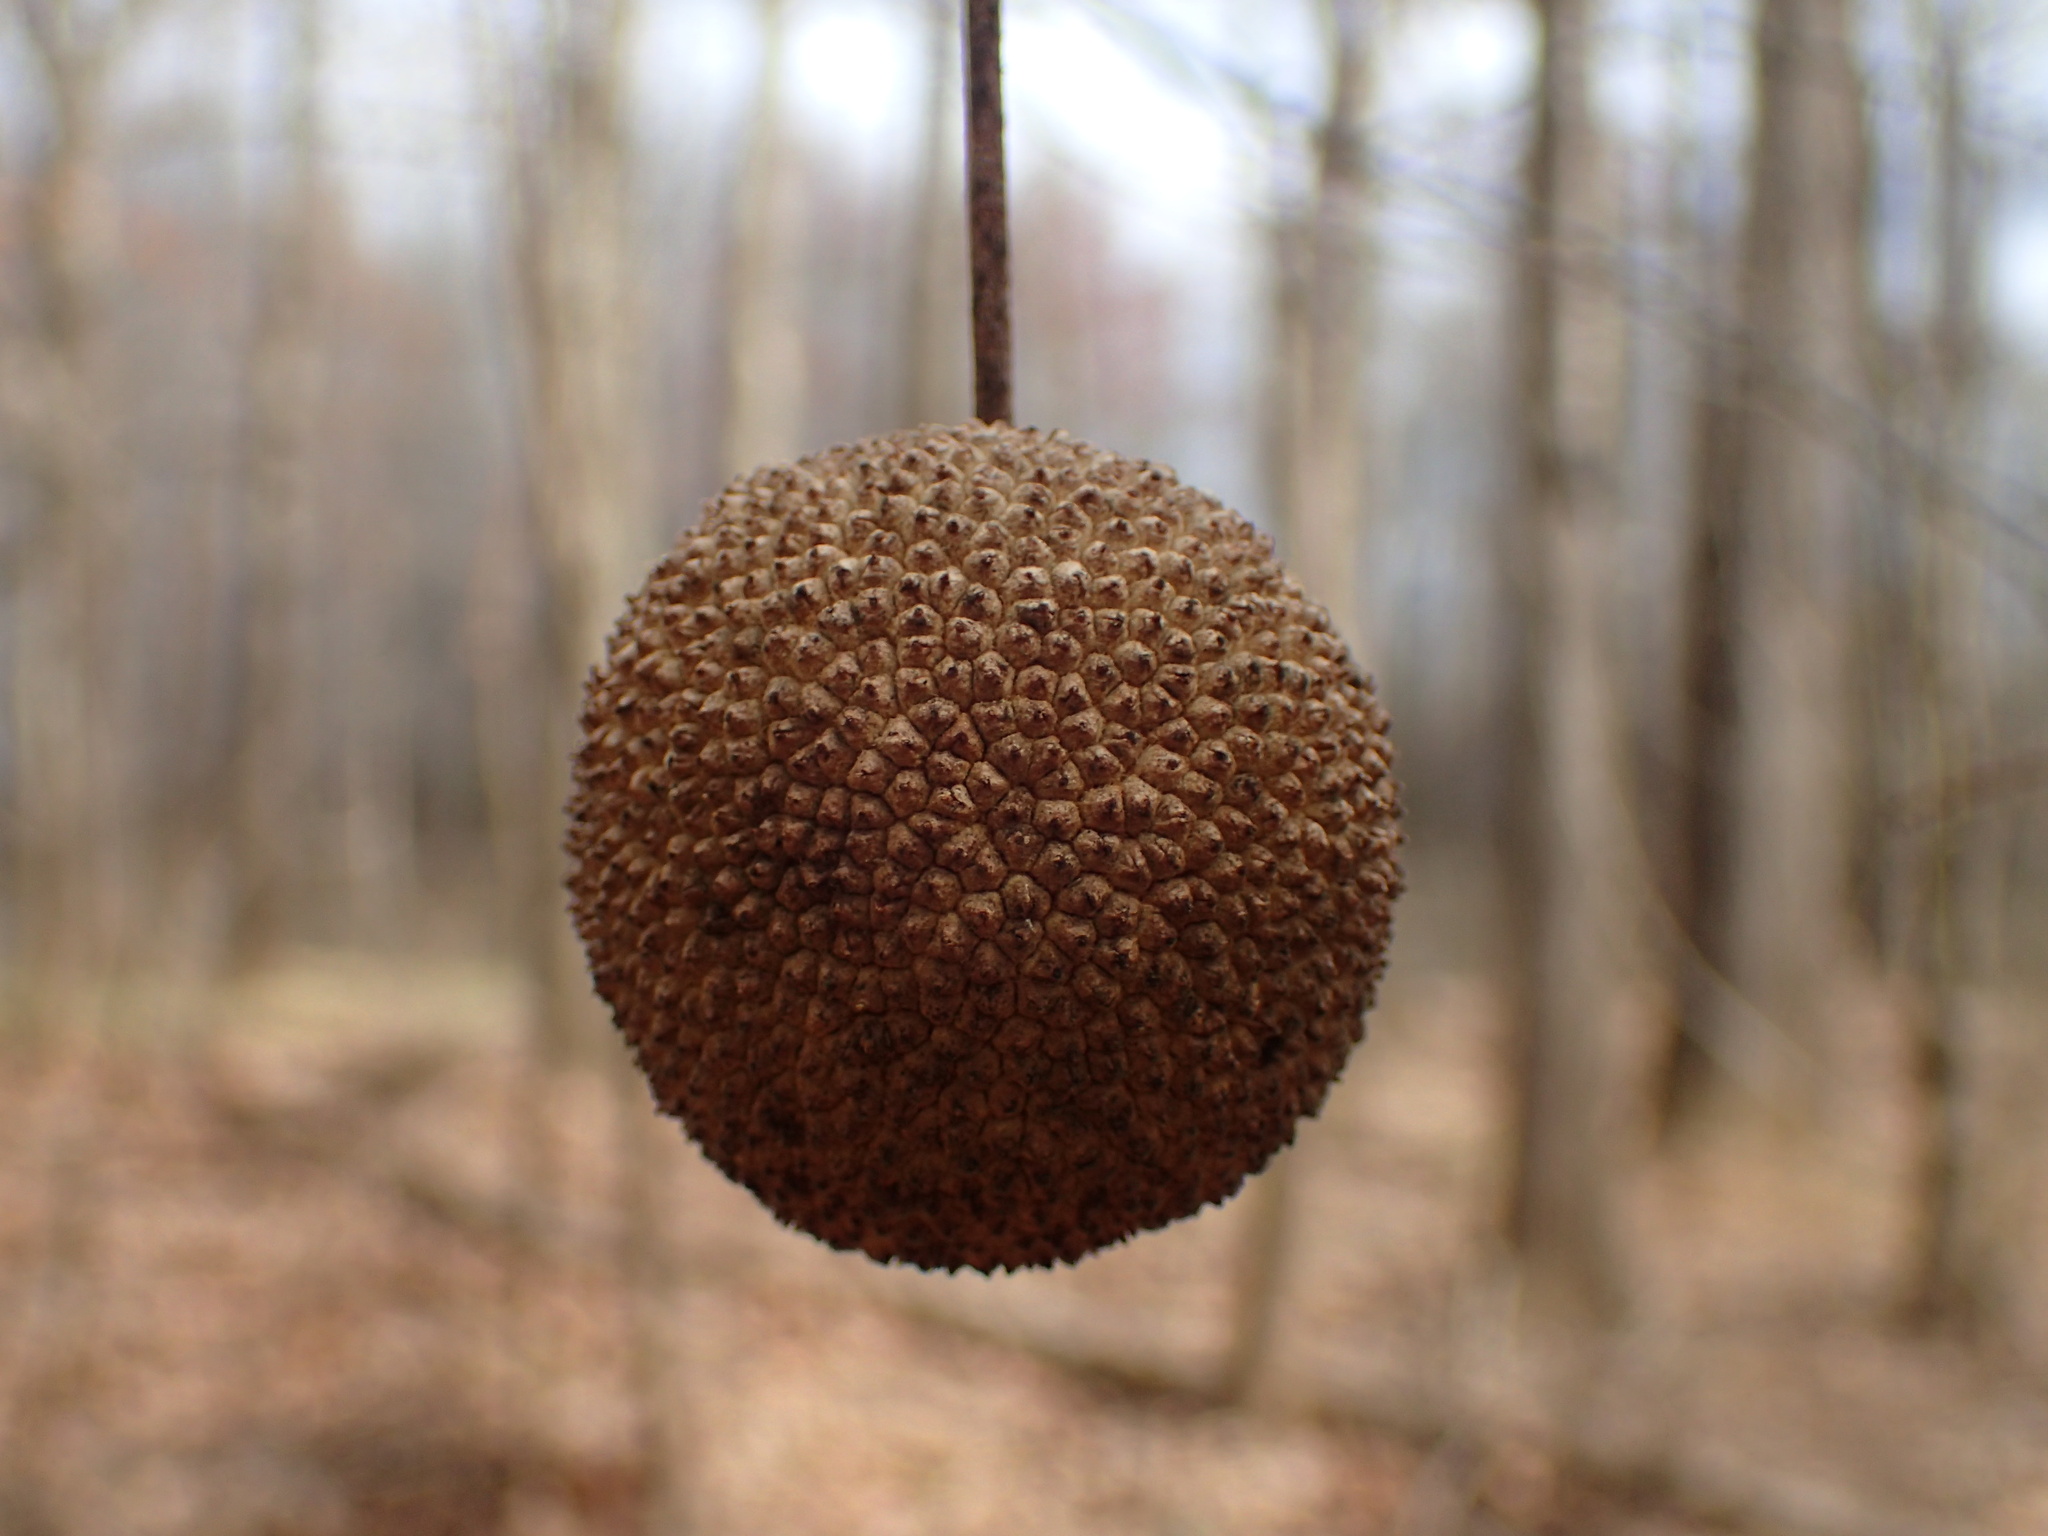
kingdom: Plantae
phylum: Tracheophyta
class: Magnoliopsida
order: Proteales
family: Platanaceae
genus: Platanus
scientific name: Platanus occidentalis
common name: American sycamore
